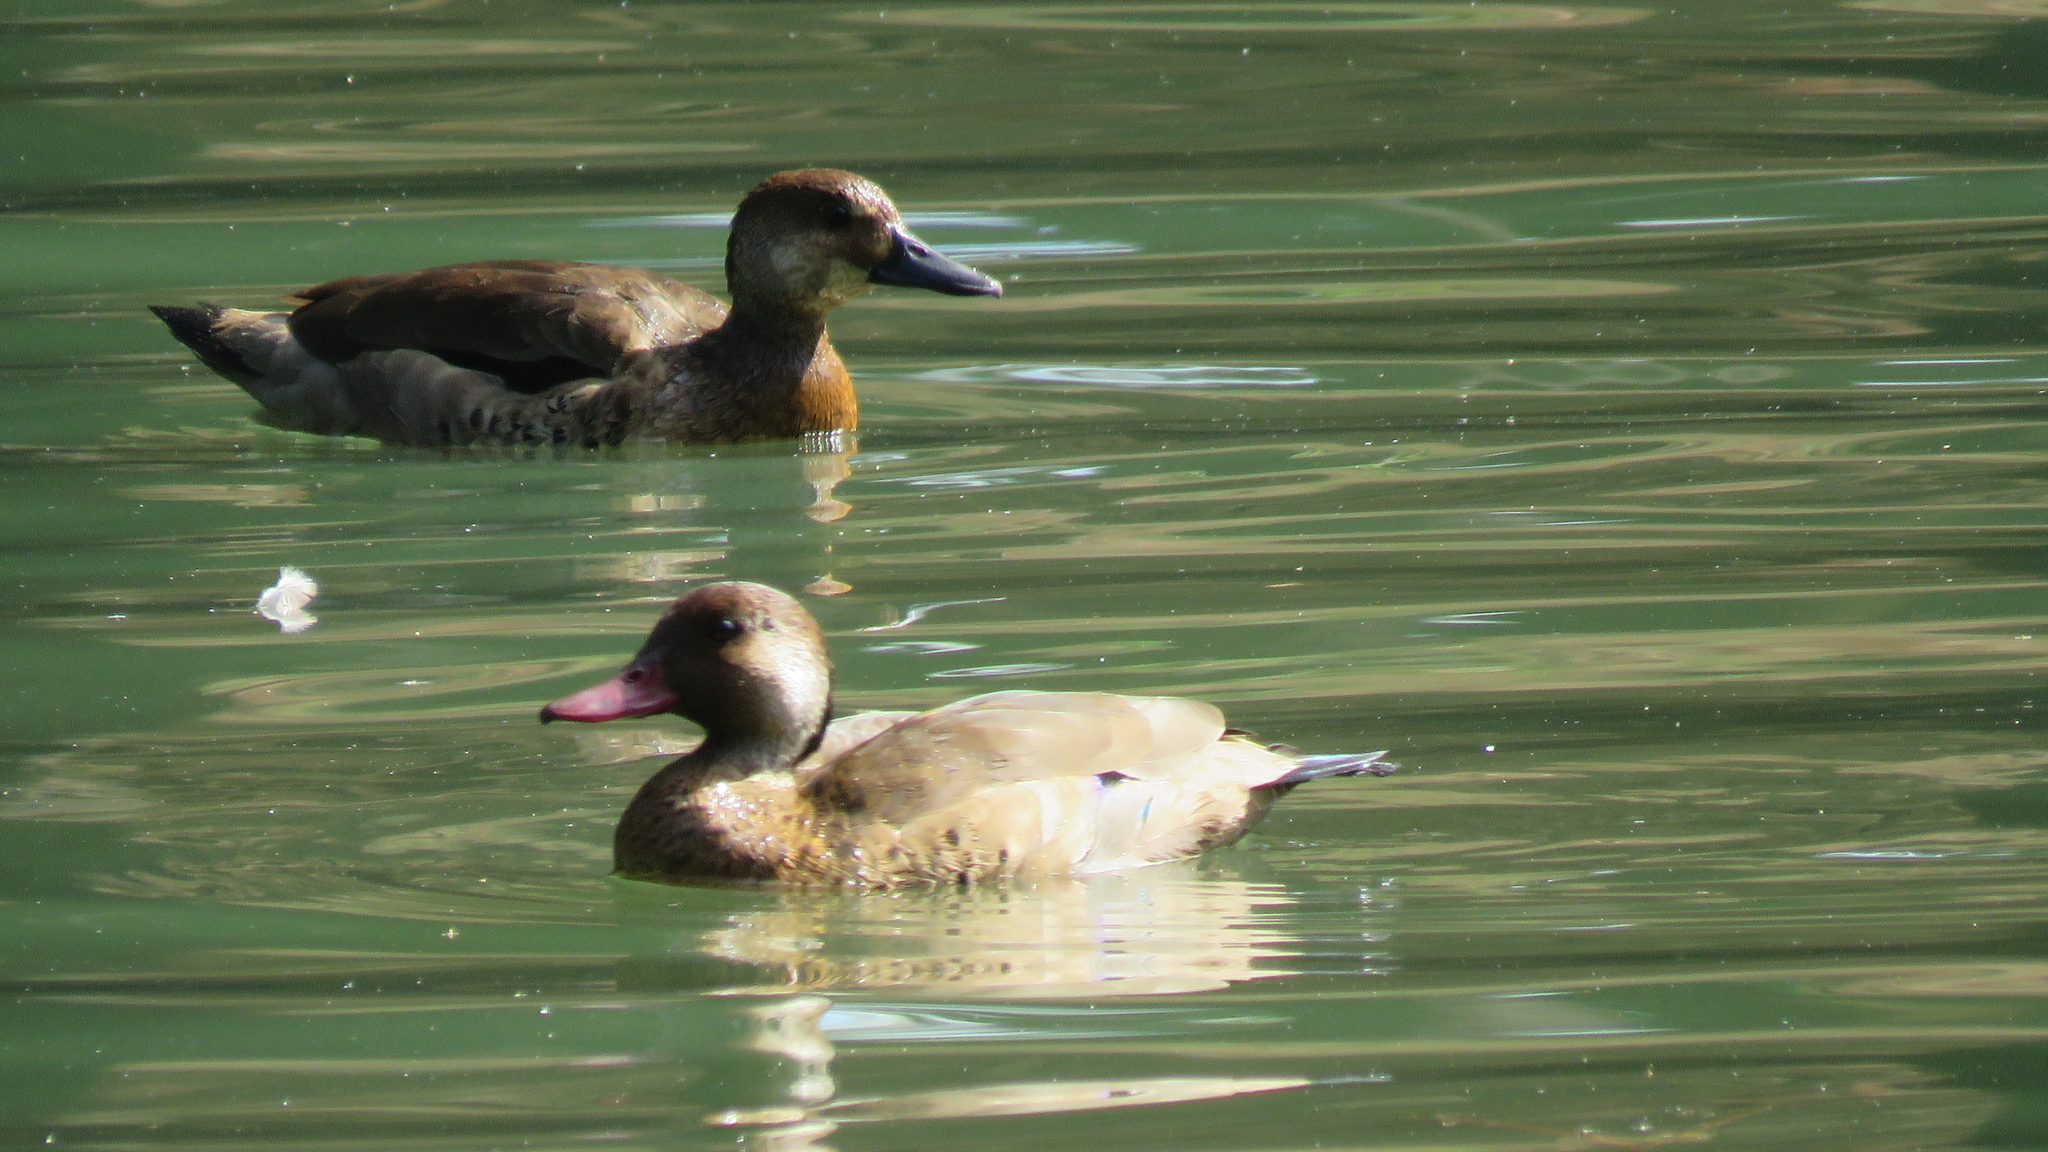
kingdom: Animalia
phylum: Chordata
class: Aves
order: Anseriformes
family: Anatidae
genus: Amazonetta
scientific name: Amazonetta brasiliensis
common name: Brazilian teal
